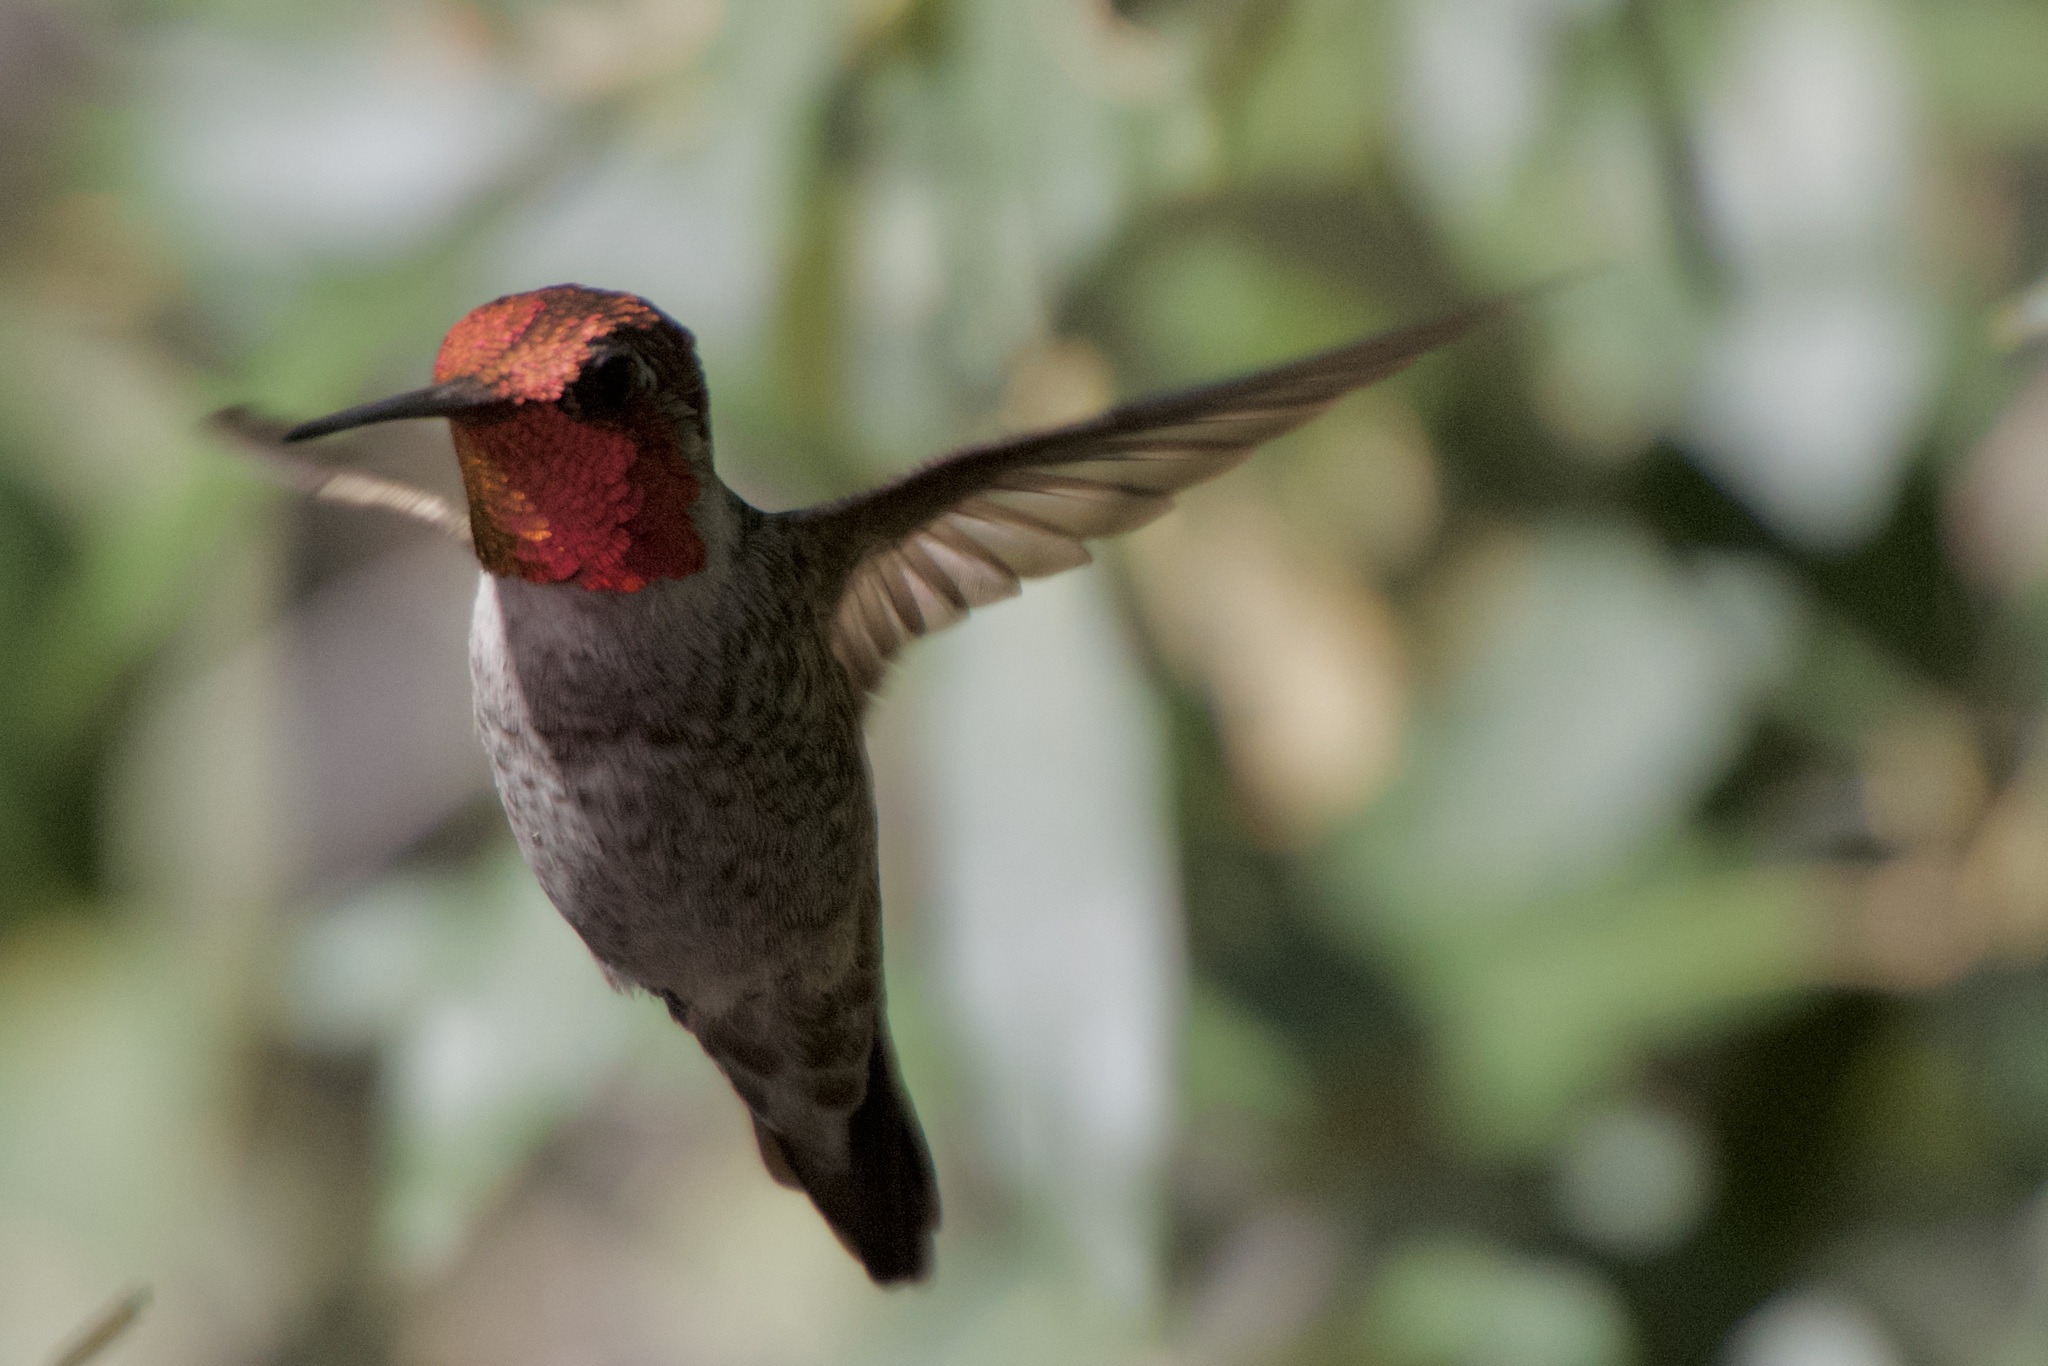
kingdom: Animalia
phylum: Chordata
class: Aves
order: Apodiformes
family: Trochilidae
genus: Calypte
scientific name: Calypte anna
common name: Anna's hummingbird
